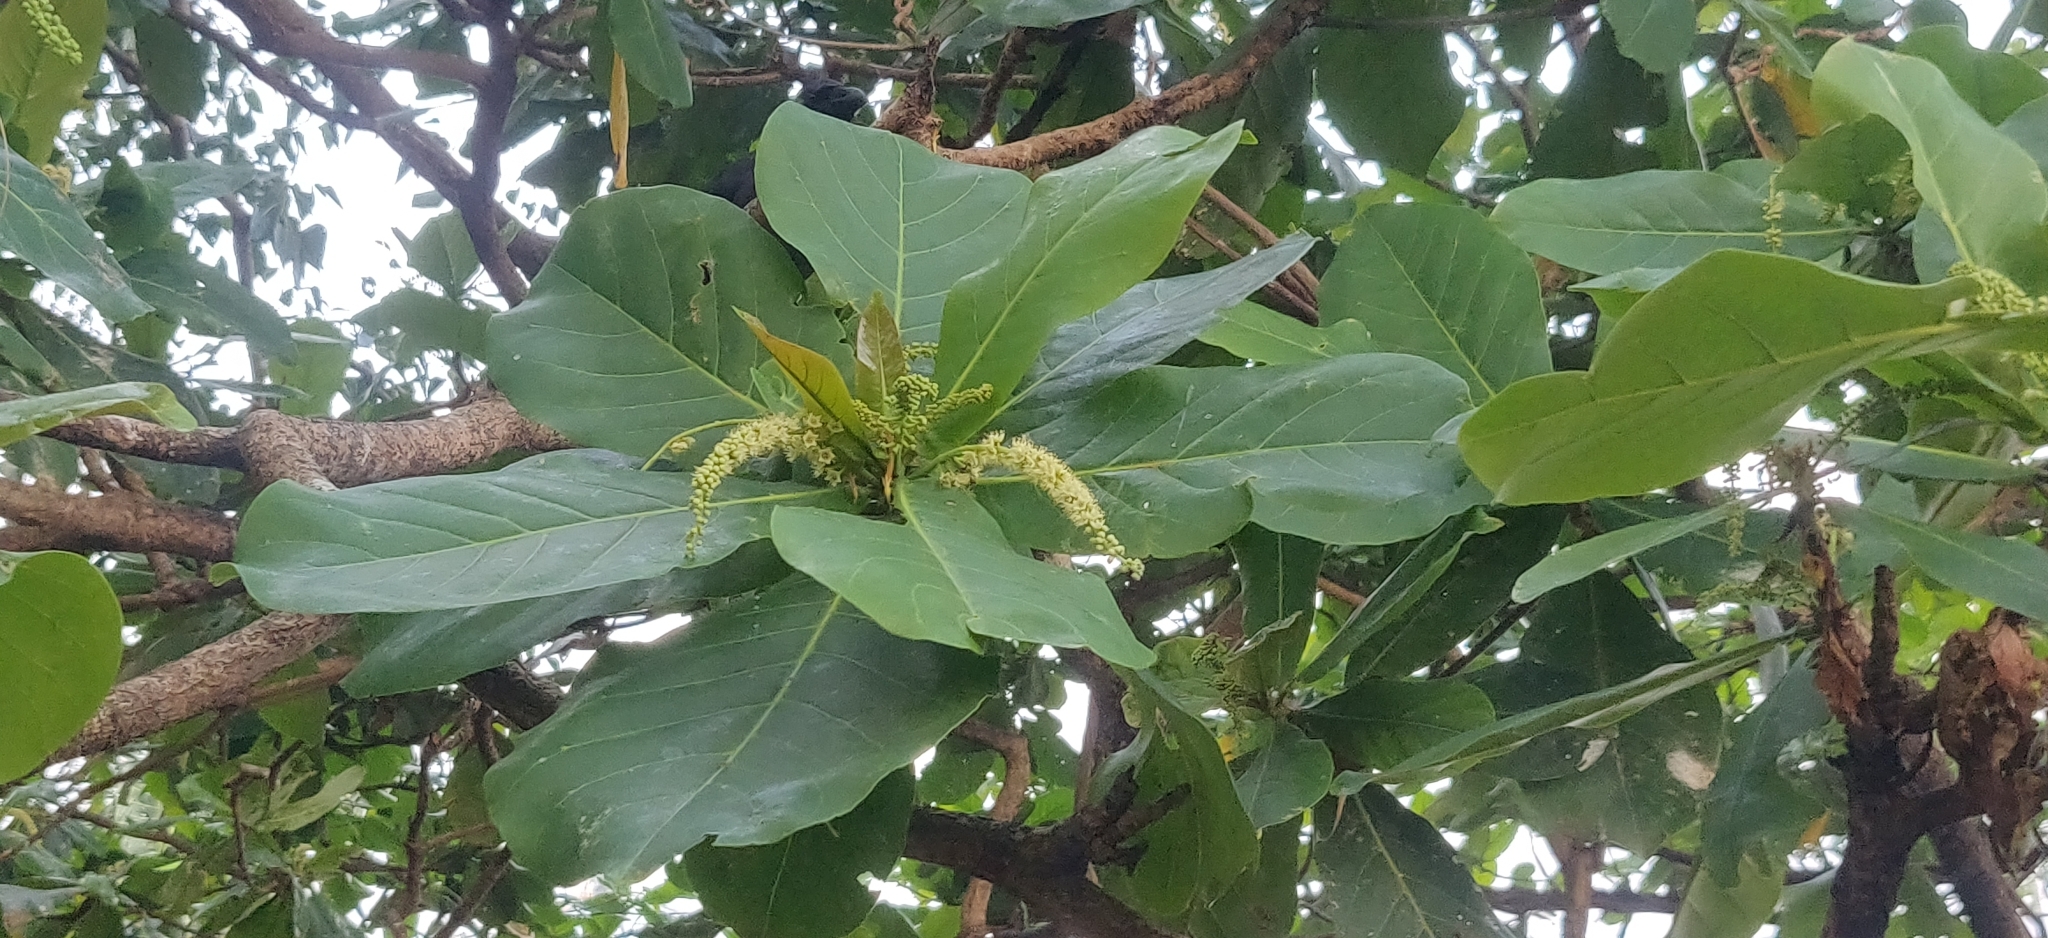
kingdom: Plantae
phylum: Tracheophyta
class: Magnoliopsida
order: Myrtales
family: Combretaceae
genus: Terminalia
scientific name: Terminalia catappa
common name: Tropical almond
